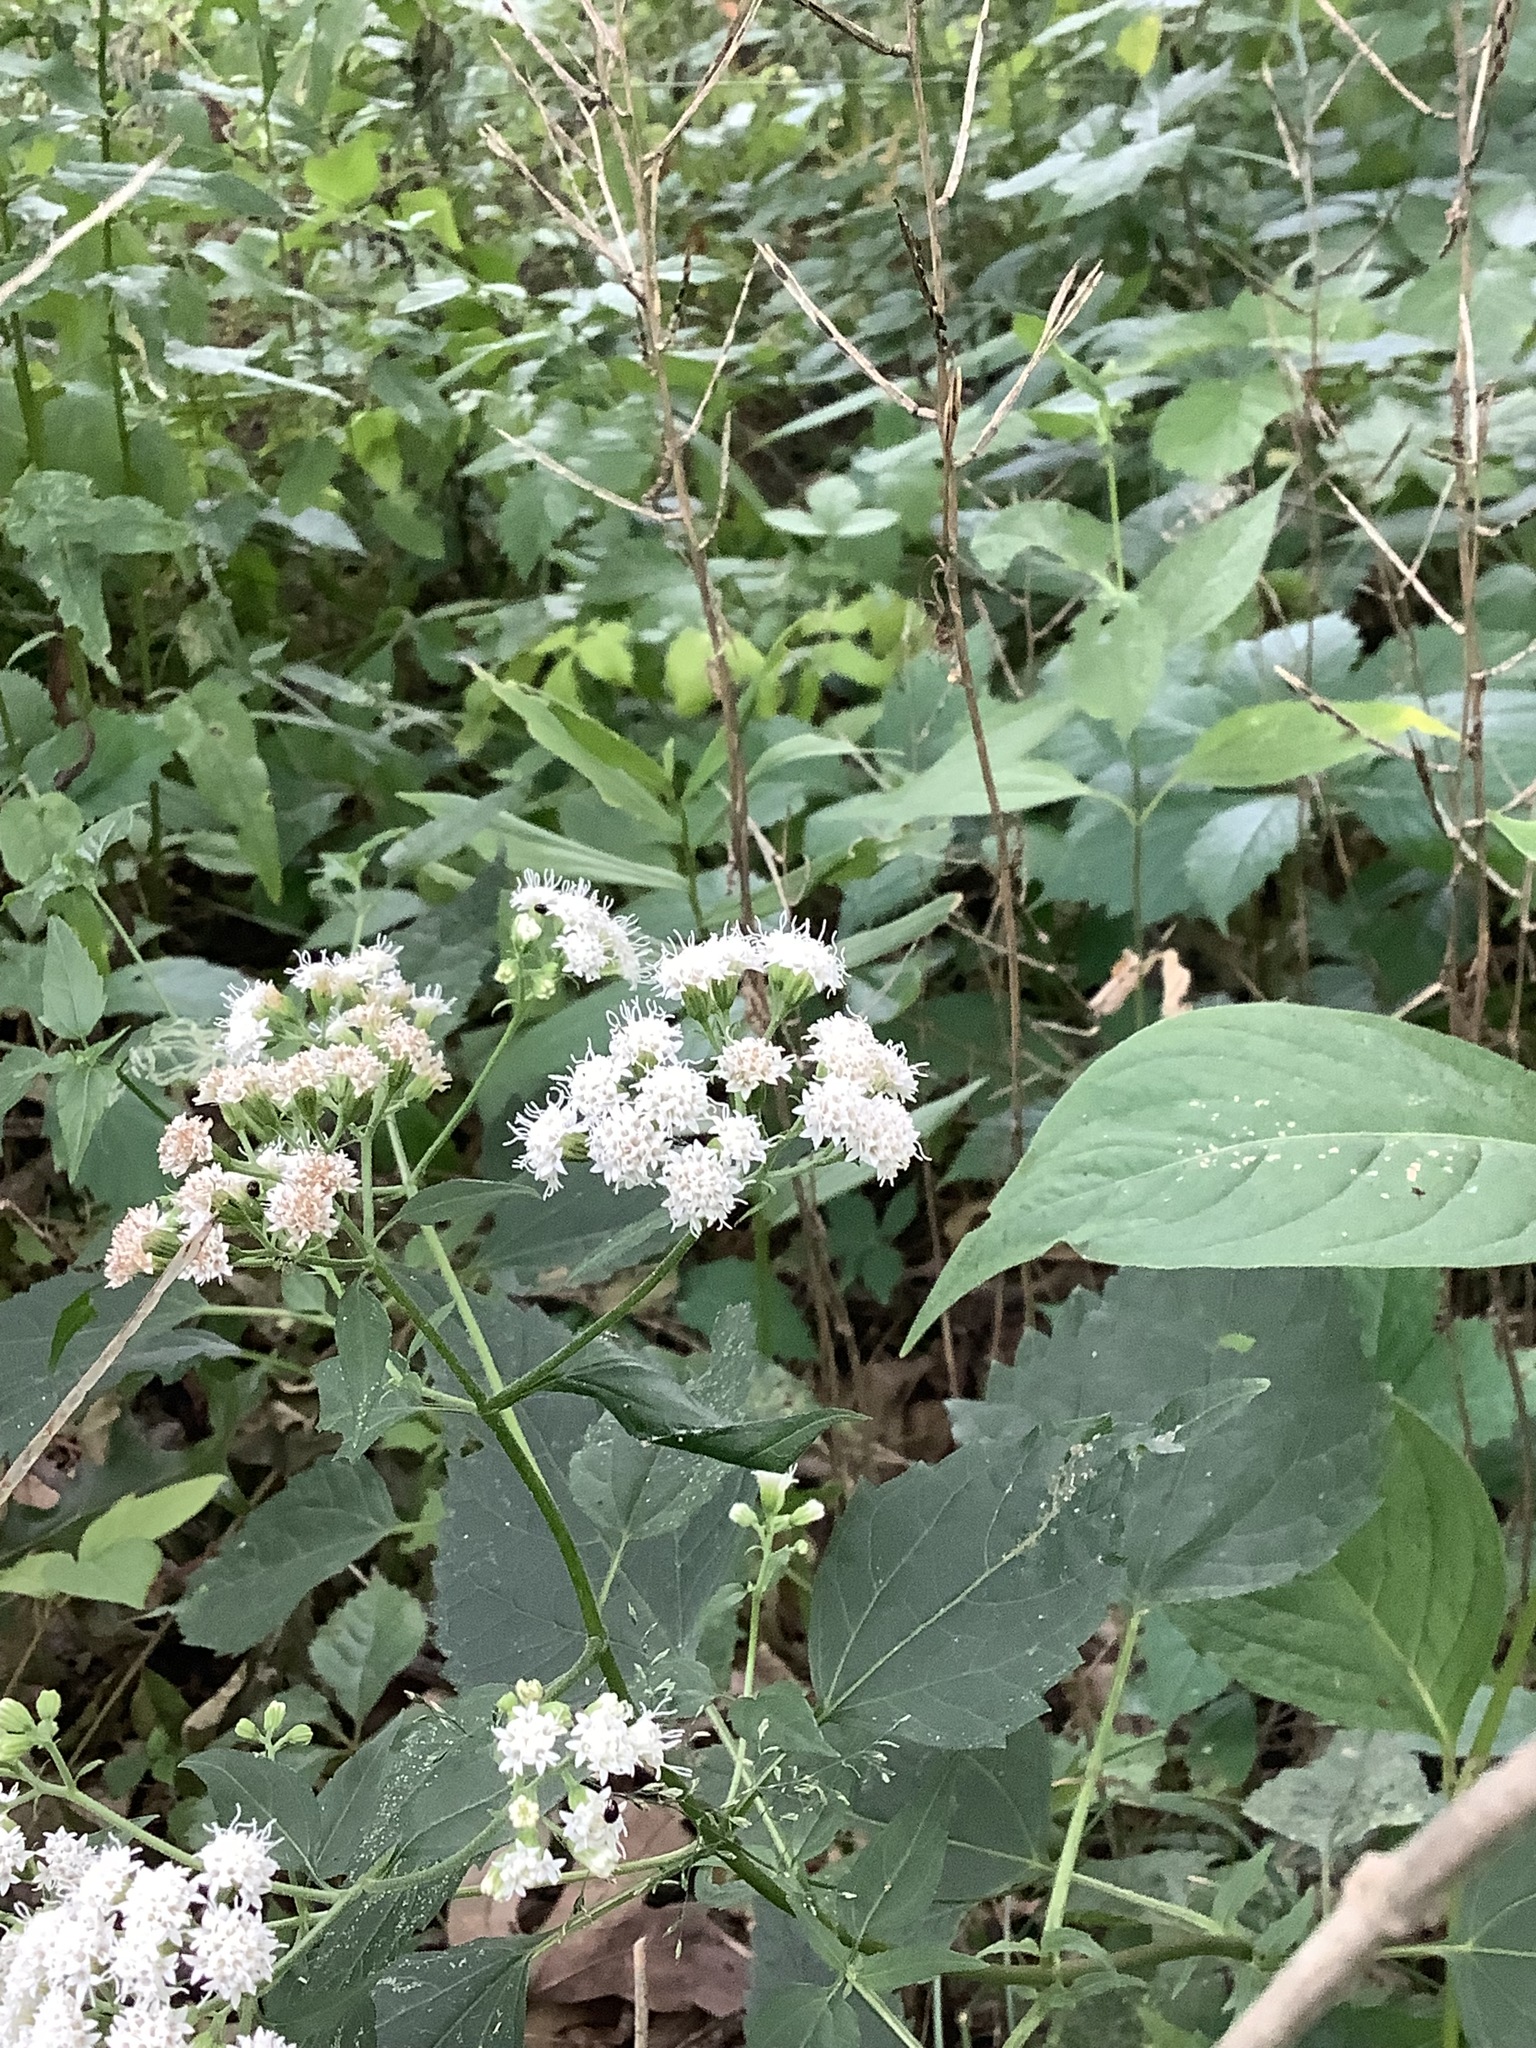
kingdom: Plantae
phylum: Tracheophyta
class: Magnoliopsida
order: Asterales
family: Asteraceae
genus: Ageratina
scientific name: Ageratina altissima
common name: White snakeroot
